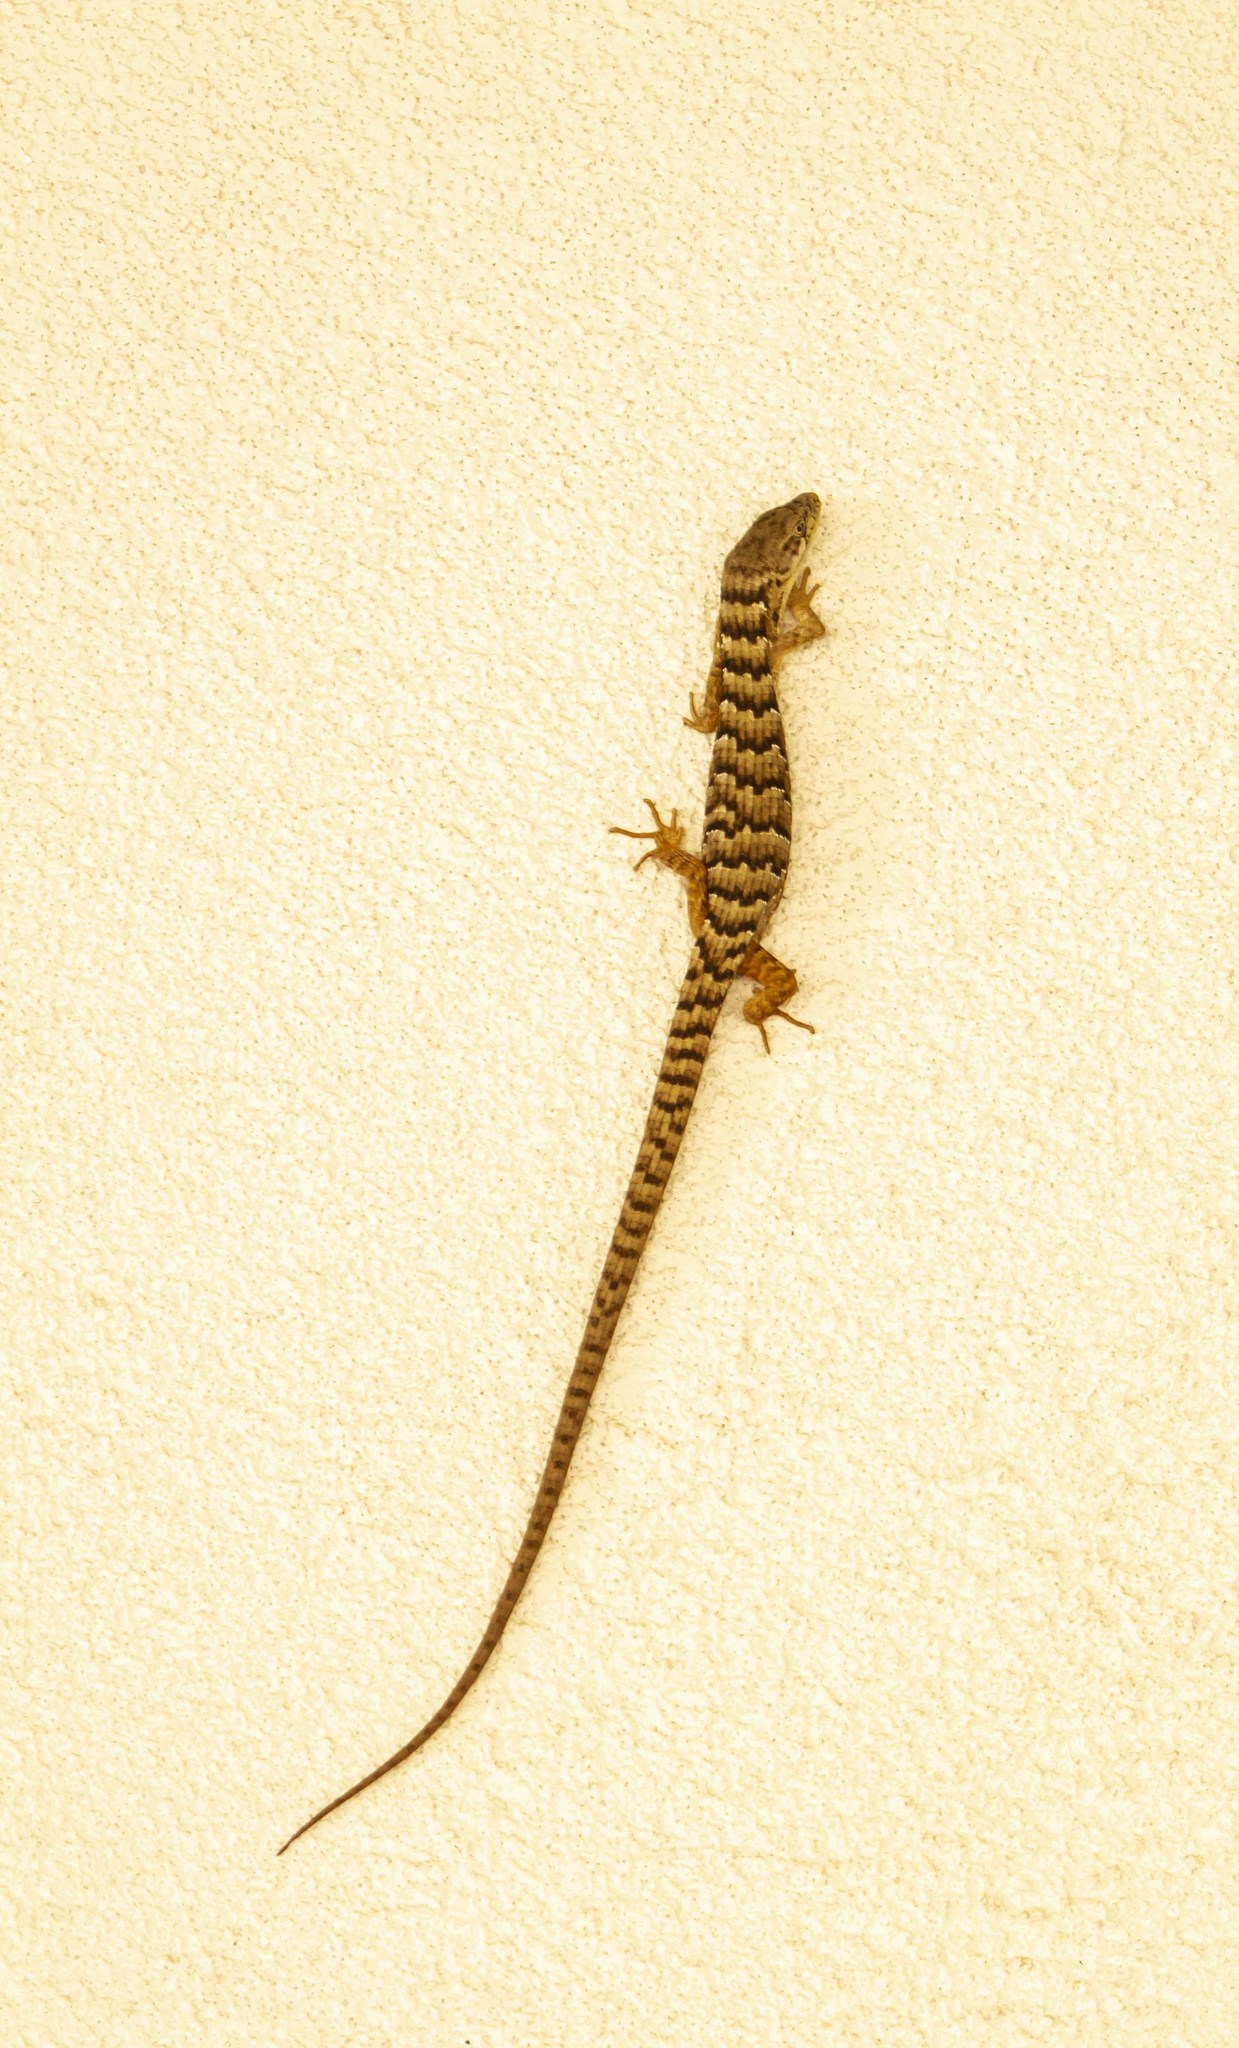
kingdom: Animalia
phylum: Chordata
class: Squamata
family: Anguidae
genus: Elgaria
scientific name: Elgaria multicarinata
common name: Southern alligator lizard
